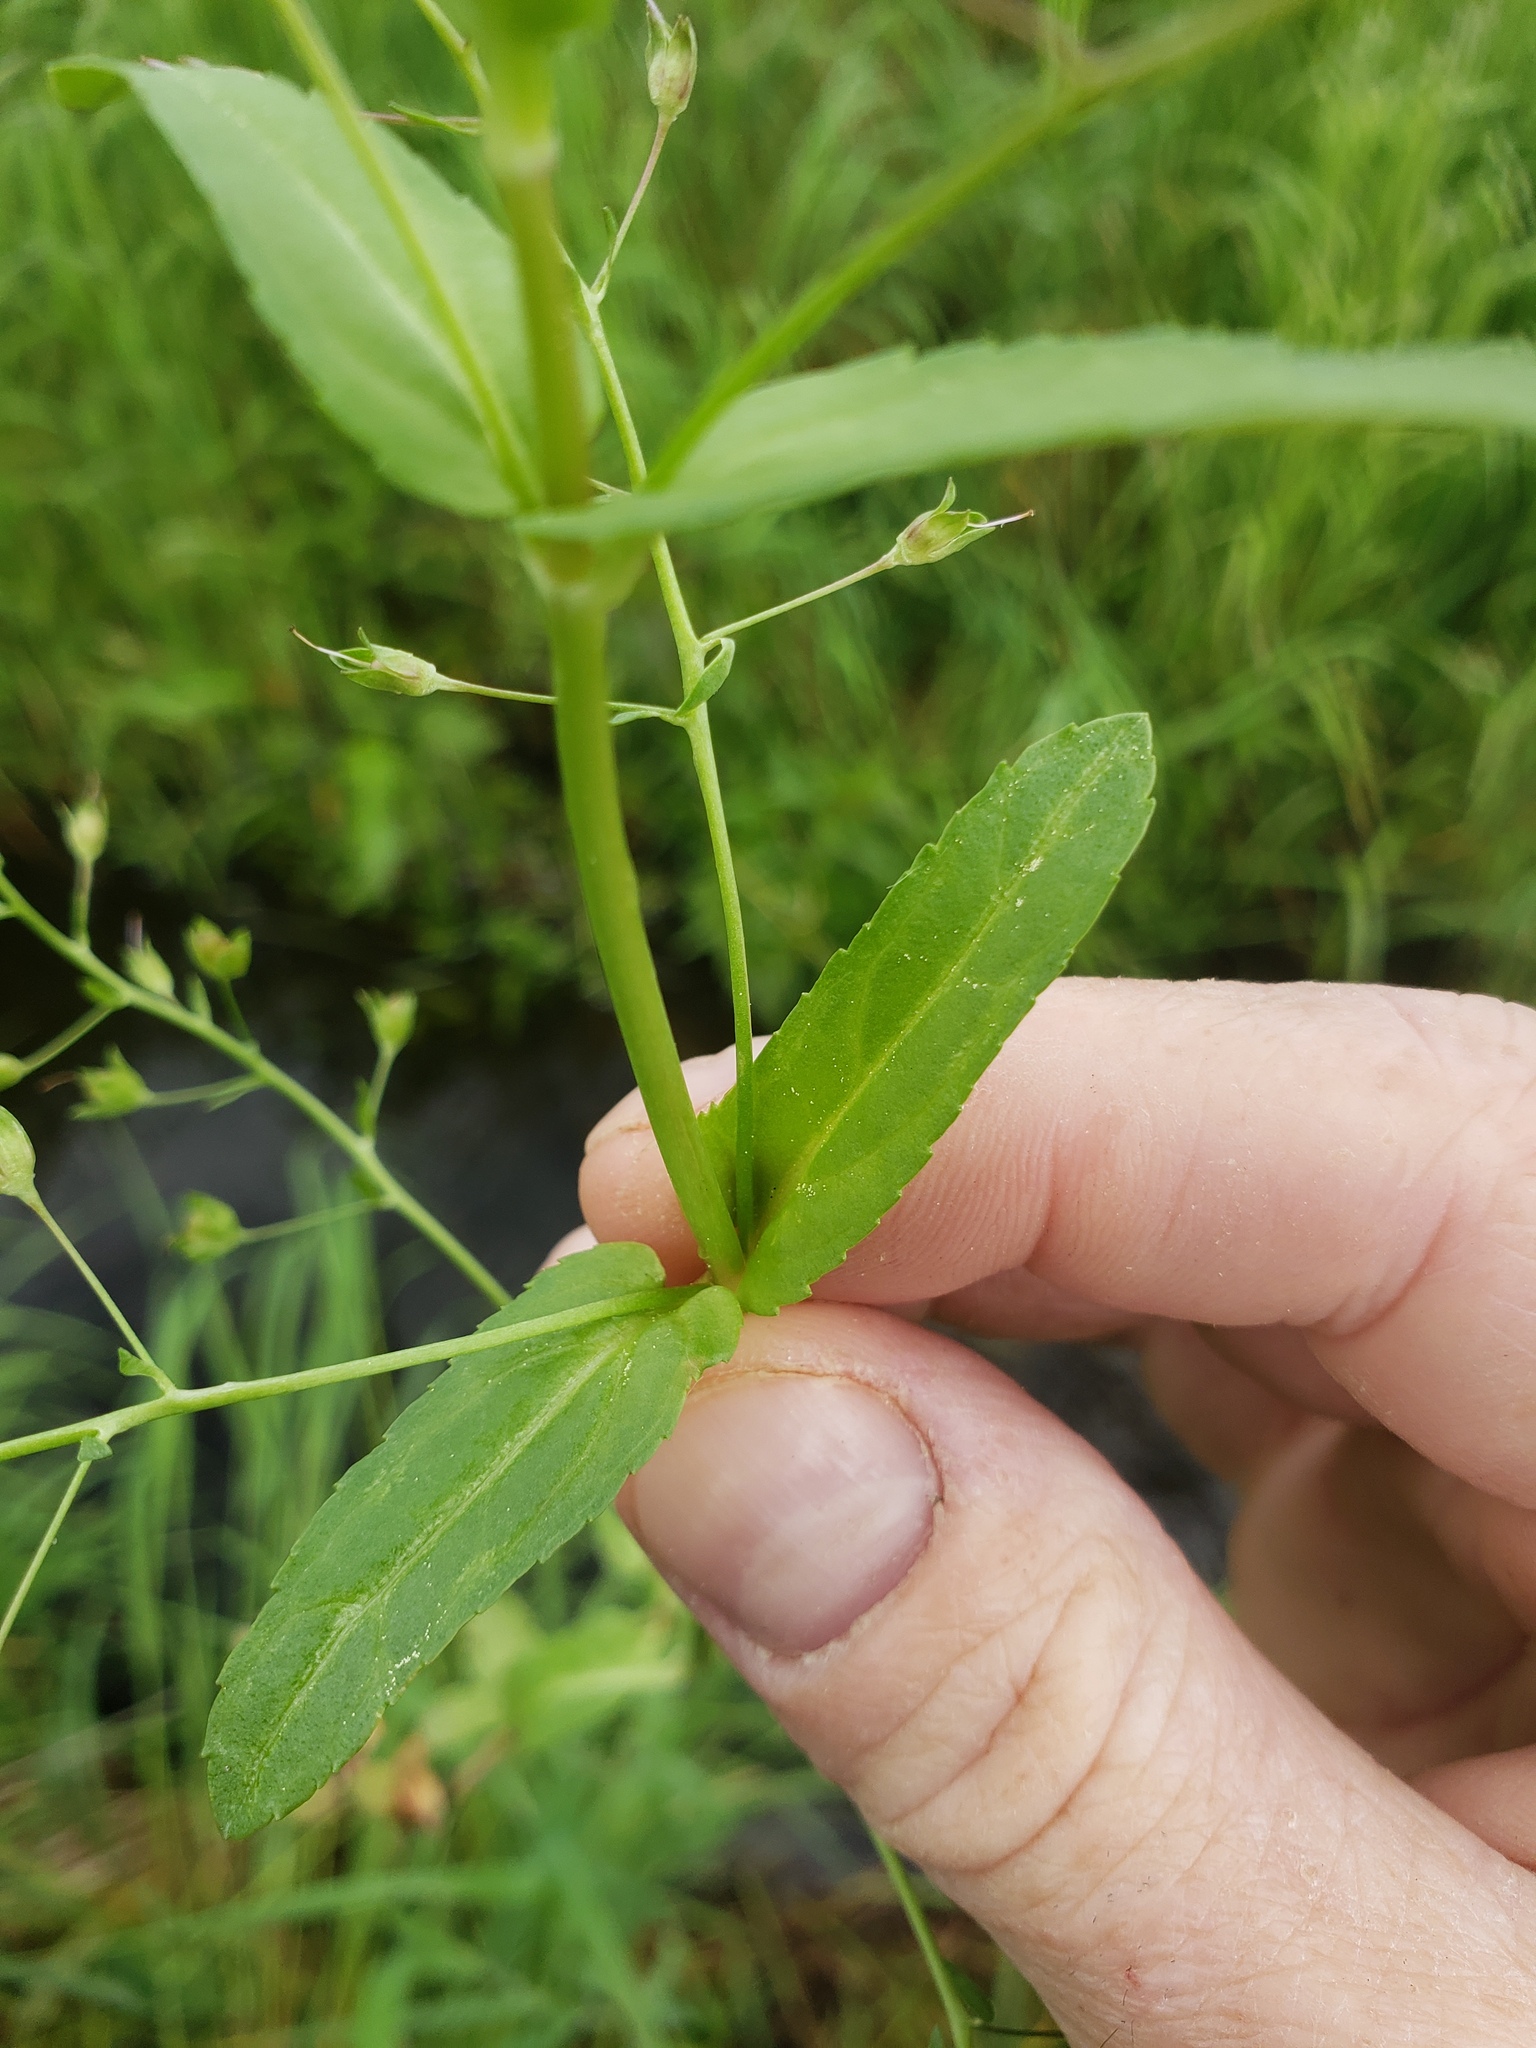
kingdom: Plantae
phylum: Tracheophyta
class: Magnoliopsida
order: Lamiales
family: Plantaginaceae
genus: Veronica
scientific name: Veronica americana
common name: American brooklime
